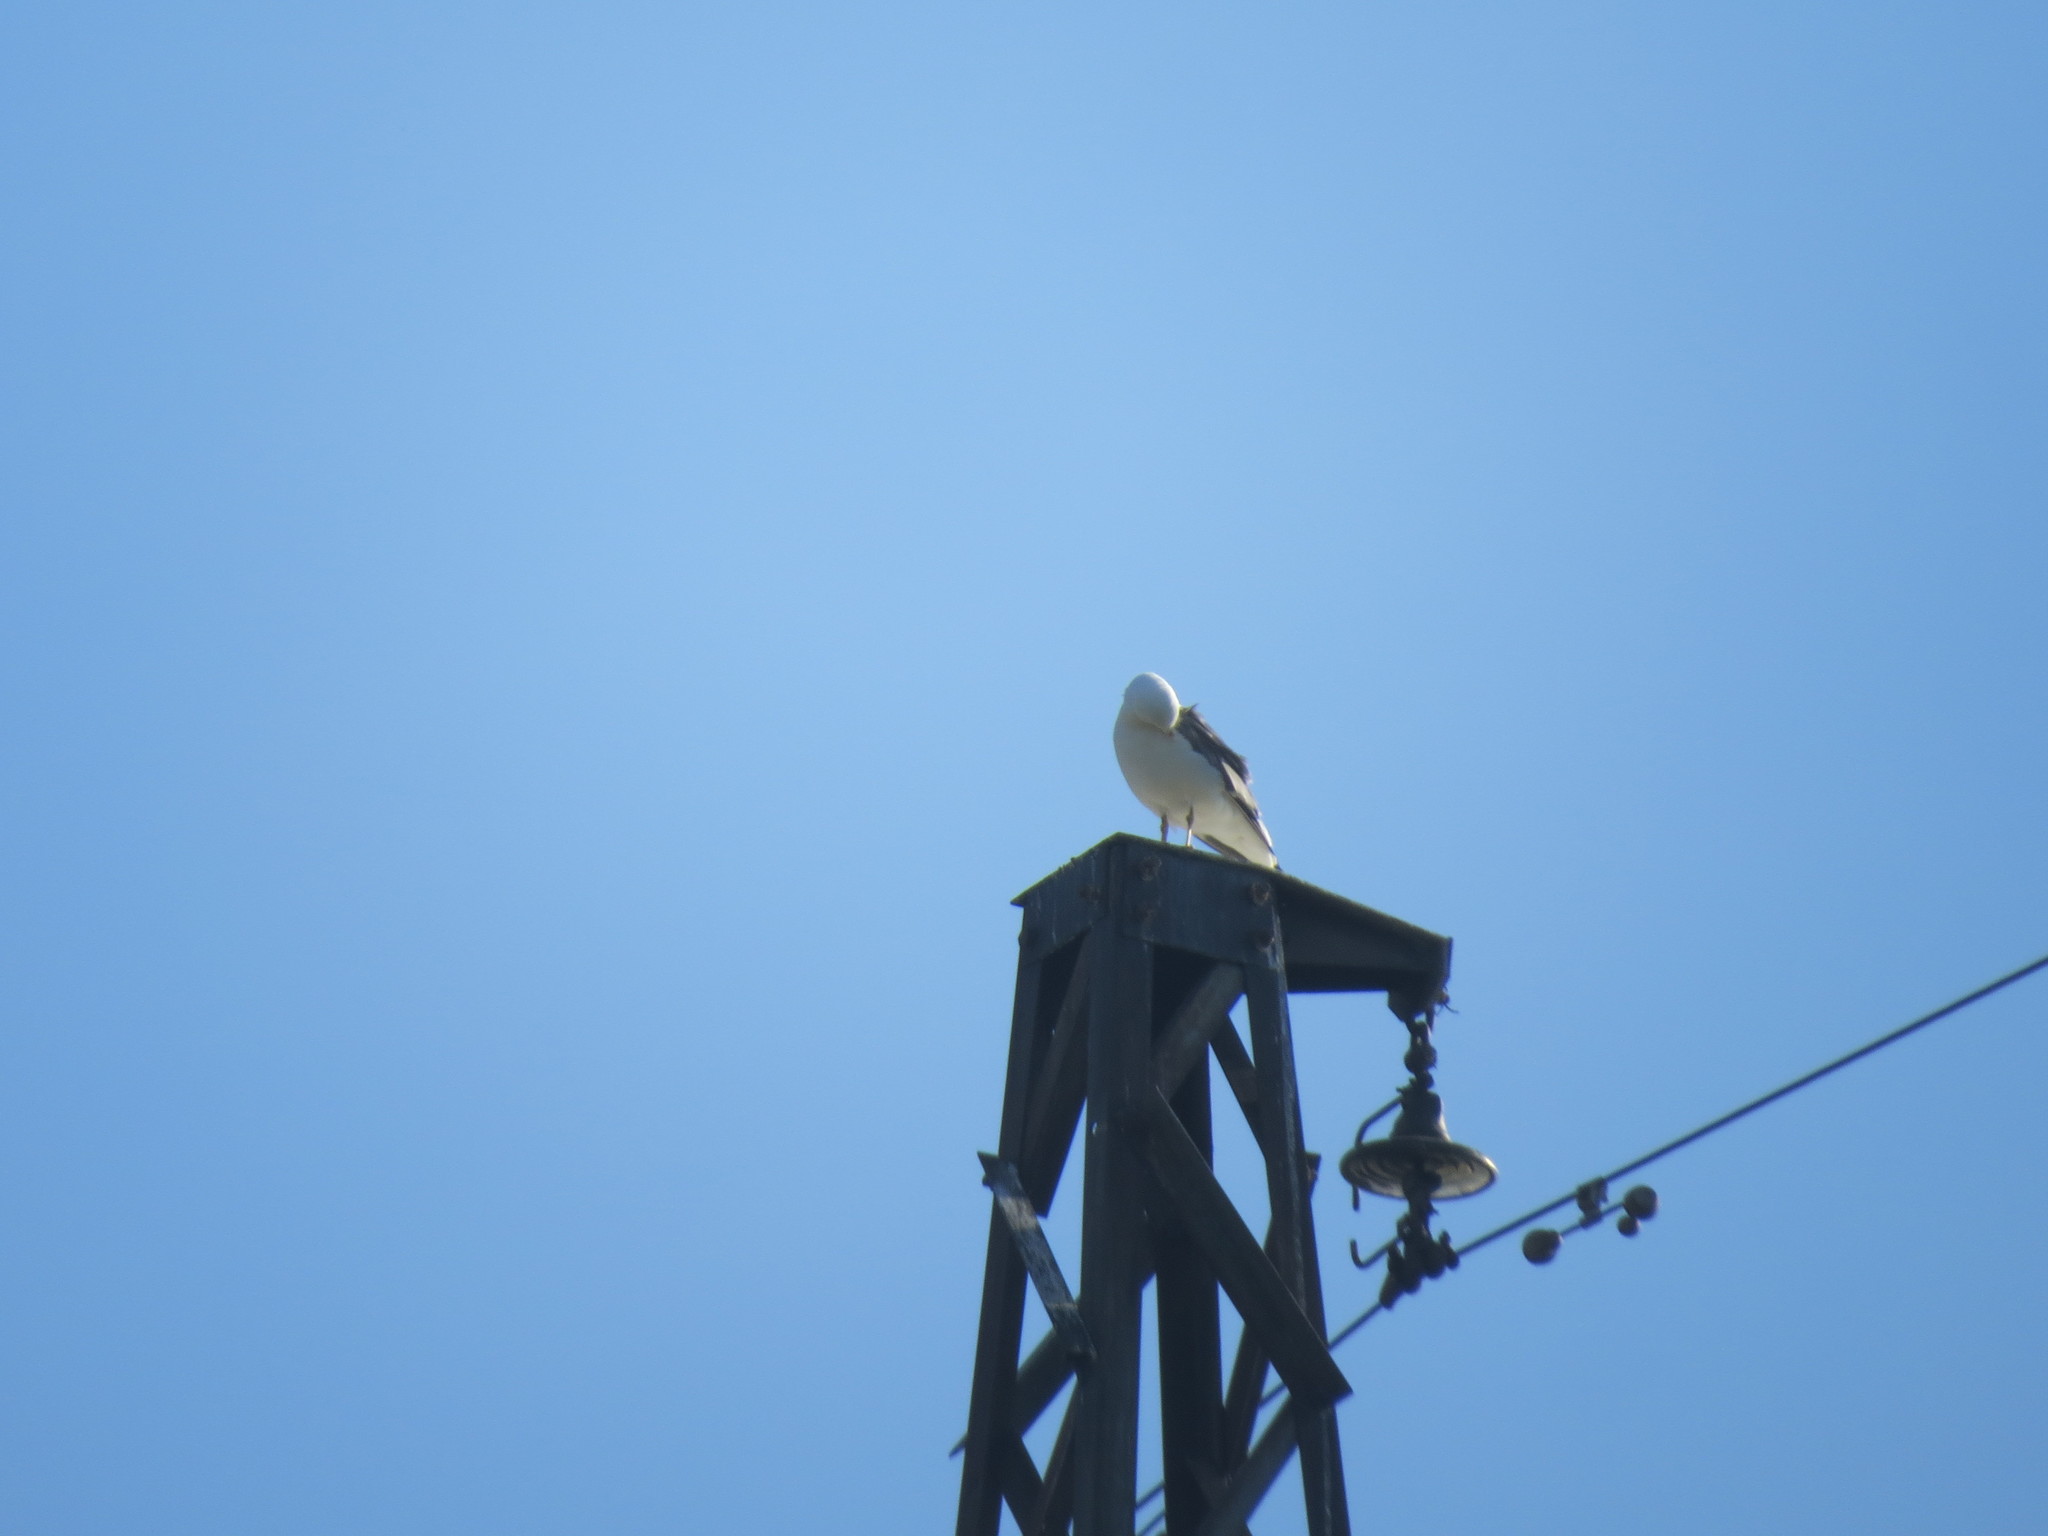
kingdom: Animalia
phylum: Chordata
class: Aves
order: Charadriiformes
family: Laridae
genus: Larus
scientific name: Larus fuscus
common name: Lesser black-backed gull
